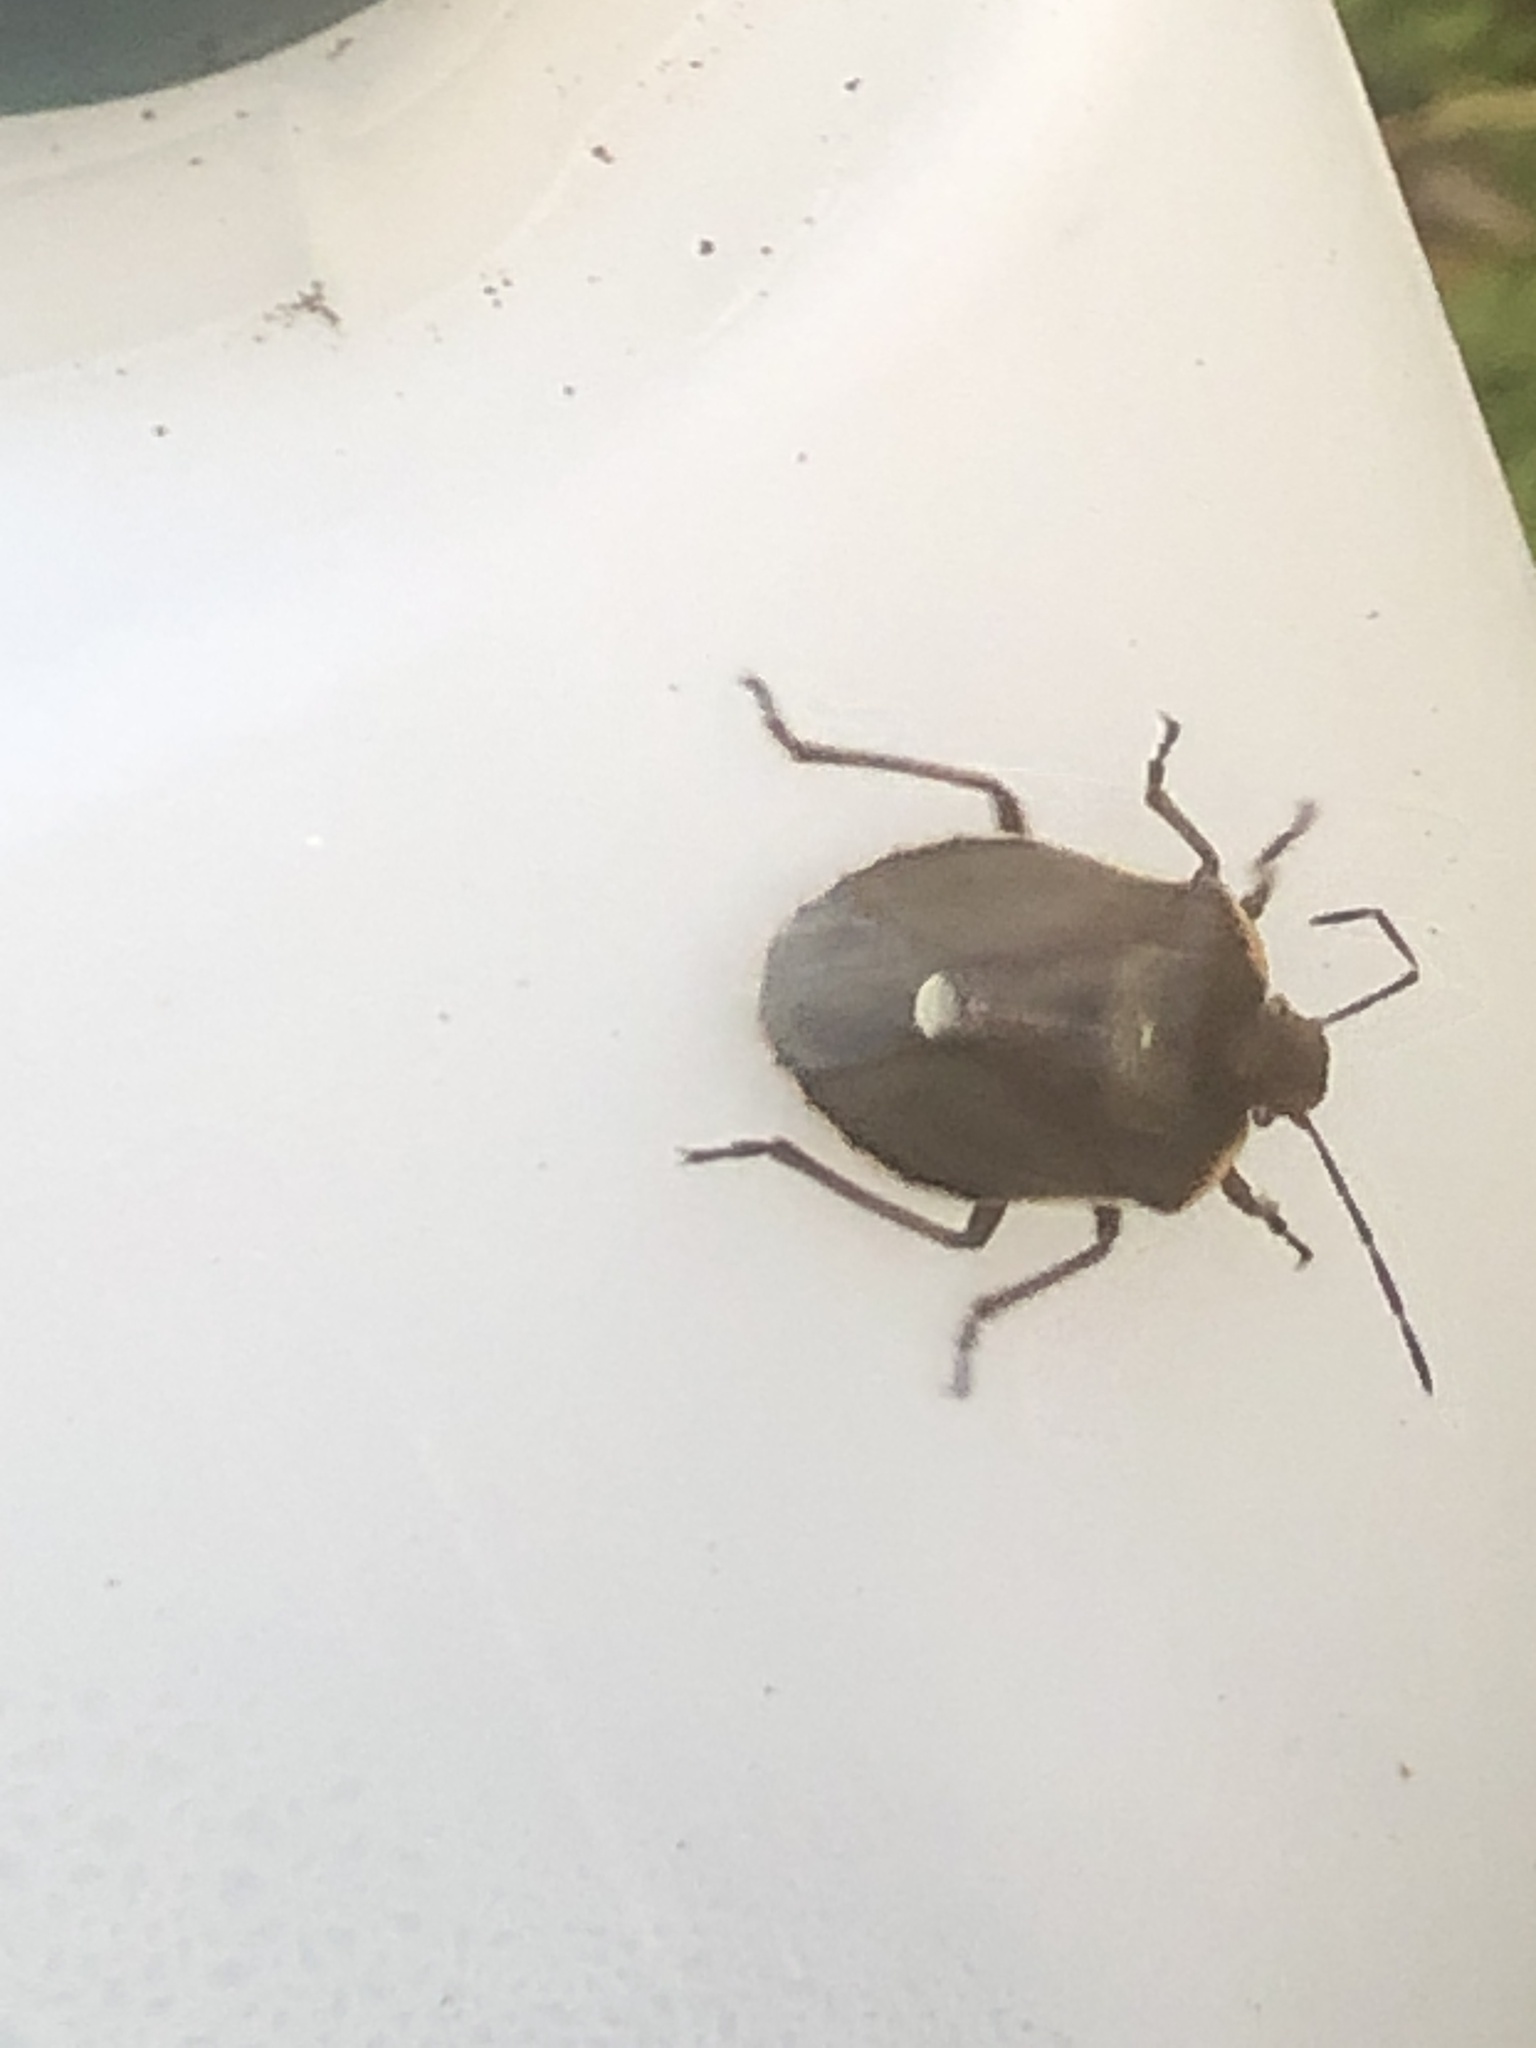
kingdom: Animalia
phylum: Arthropoda
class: Insecta
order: Hemiptera
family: Pentatomidae
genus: Chlorochroa
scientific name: Chlorochroa pinicola
